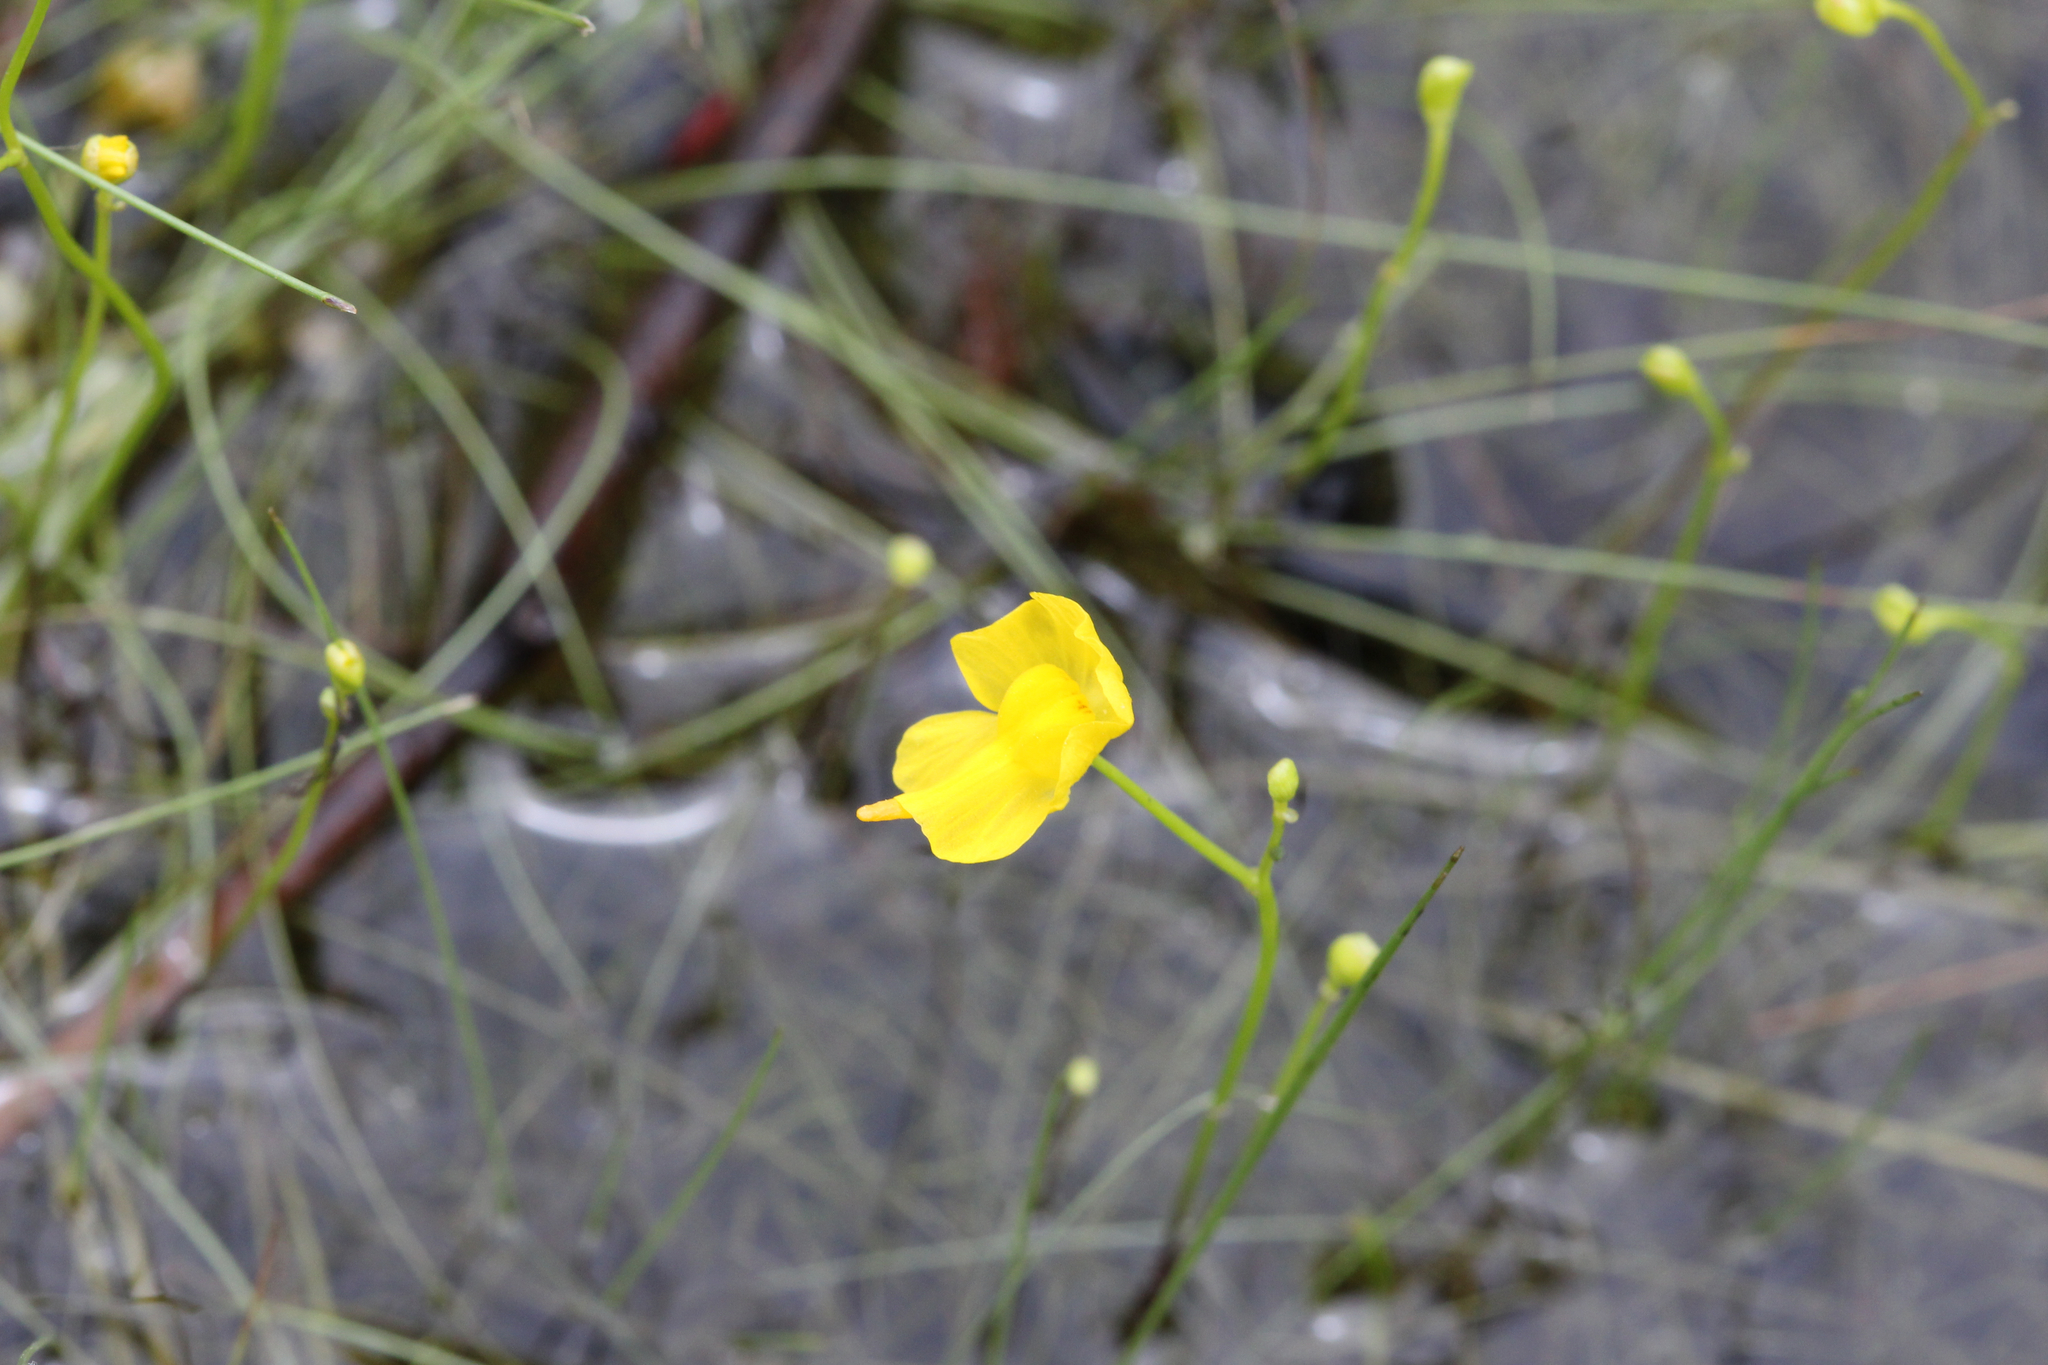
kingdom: Plantae
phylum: Tracheophyta
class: Magnoliopsida
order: Lamiales
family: Lentibulariaceae
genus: Utricularia
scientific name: Utricularia gibba
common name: Humped bladderwort
